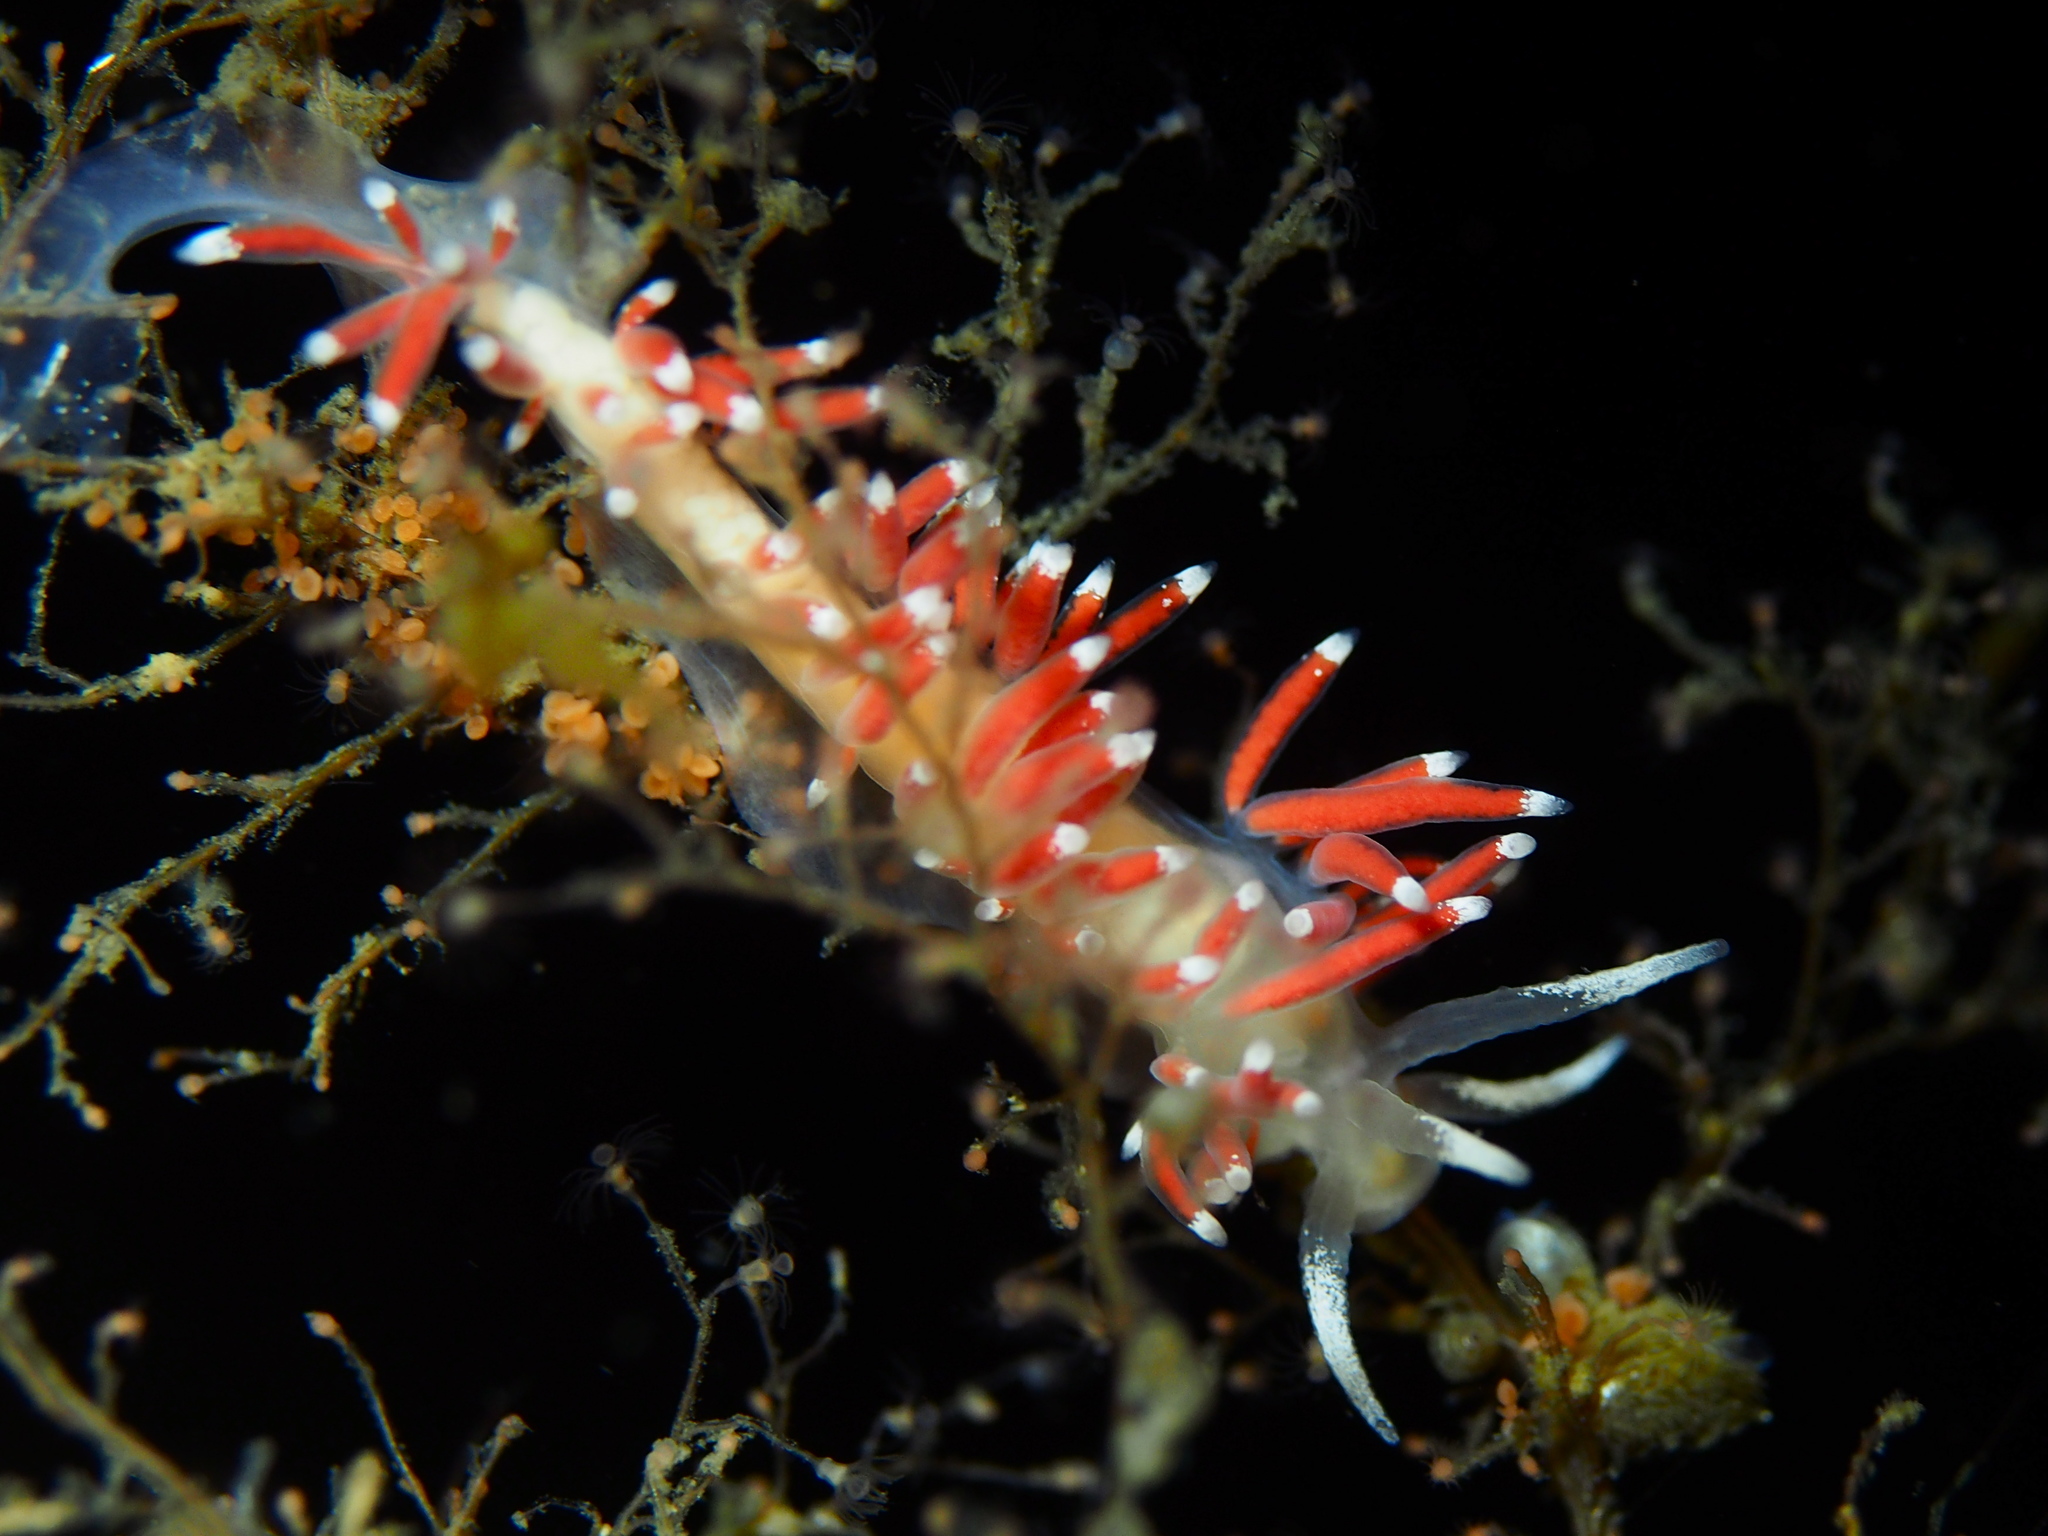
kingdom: Animalia
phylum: Mollusca
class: Gastropoda
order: Nudibranchia
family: Coryphellidae
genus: Coryphella
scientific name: Coryphella gracilis
